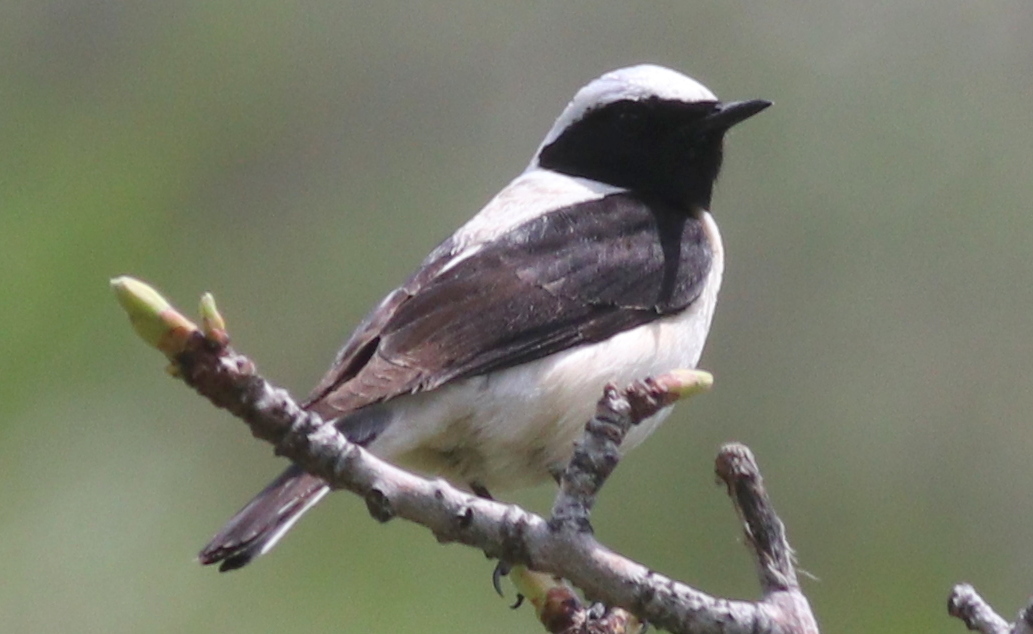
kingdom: Animalia
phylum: Chordata
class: Aves
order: Passeriformes
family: Muscicapidae
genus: Oenanthe
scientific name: Oenanthe finschii
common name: Finsch's wheatear
